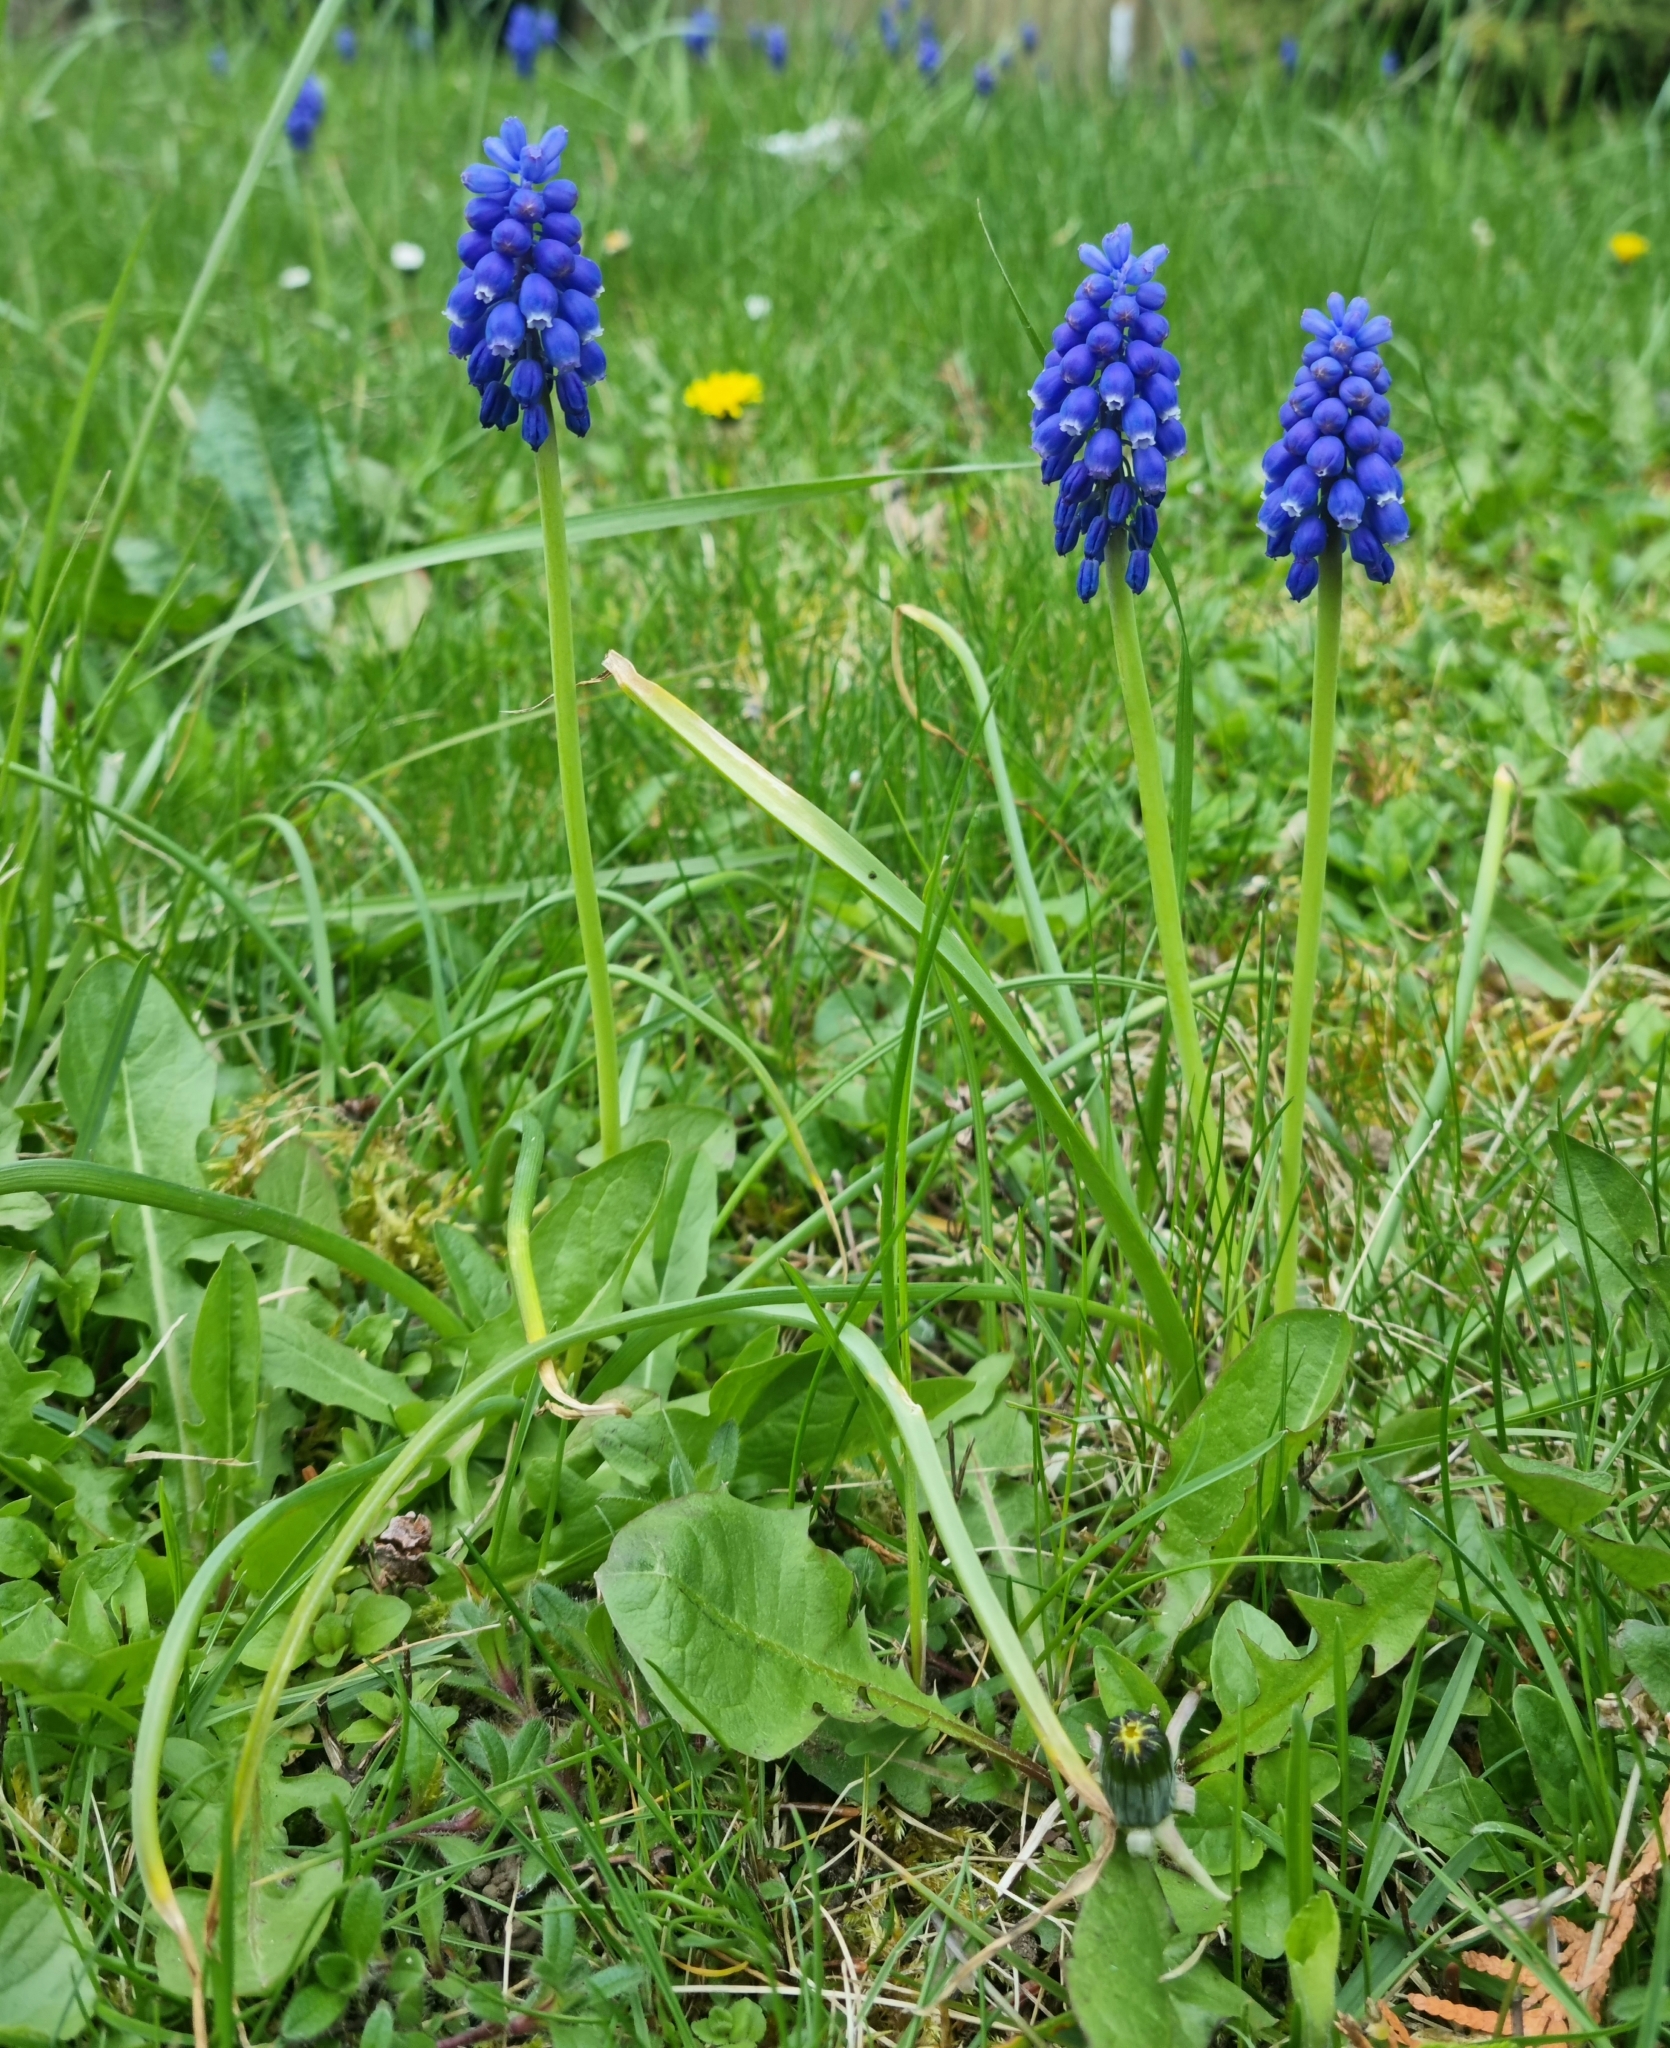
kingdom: Plantae
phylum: Tracheophyta
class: Liliopsida
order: Asparagales
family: Asparagaceae
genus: Muscari
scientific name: Muscari armeniacum
